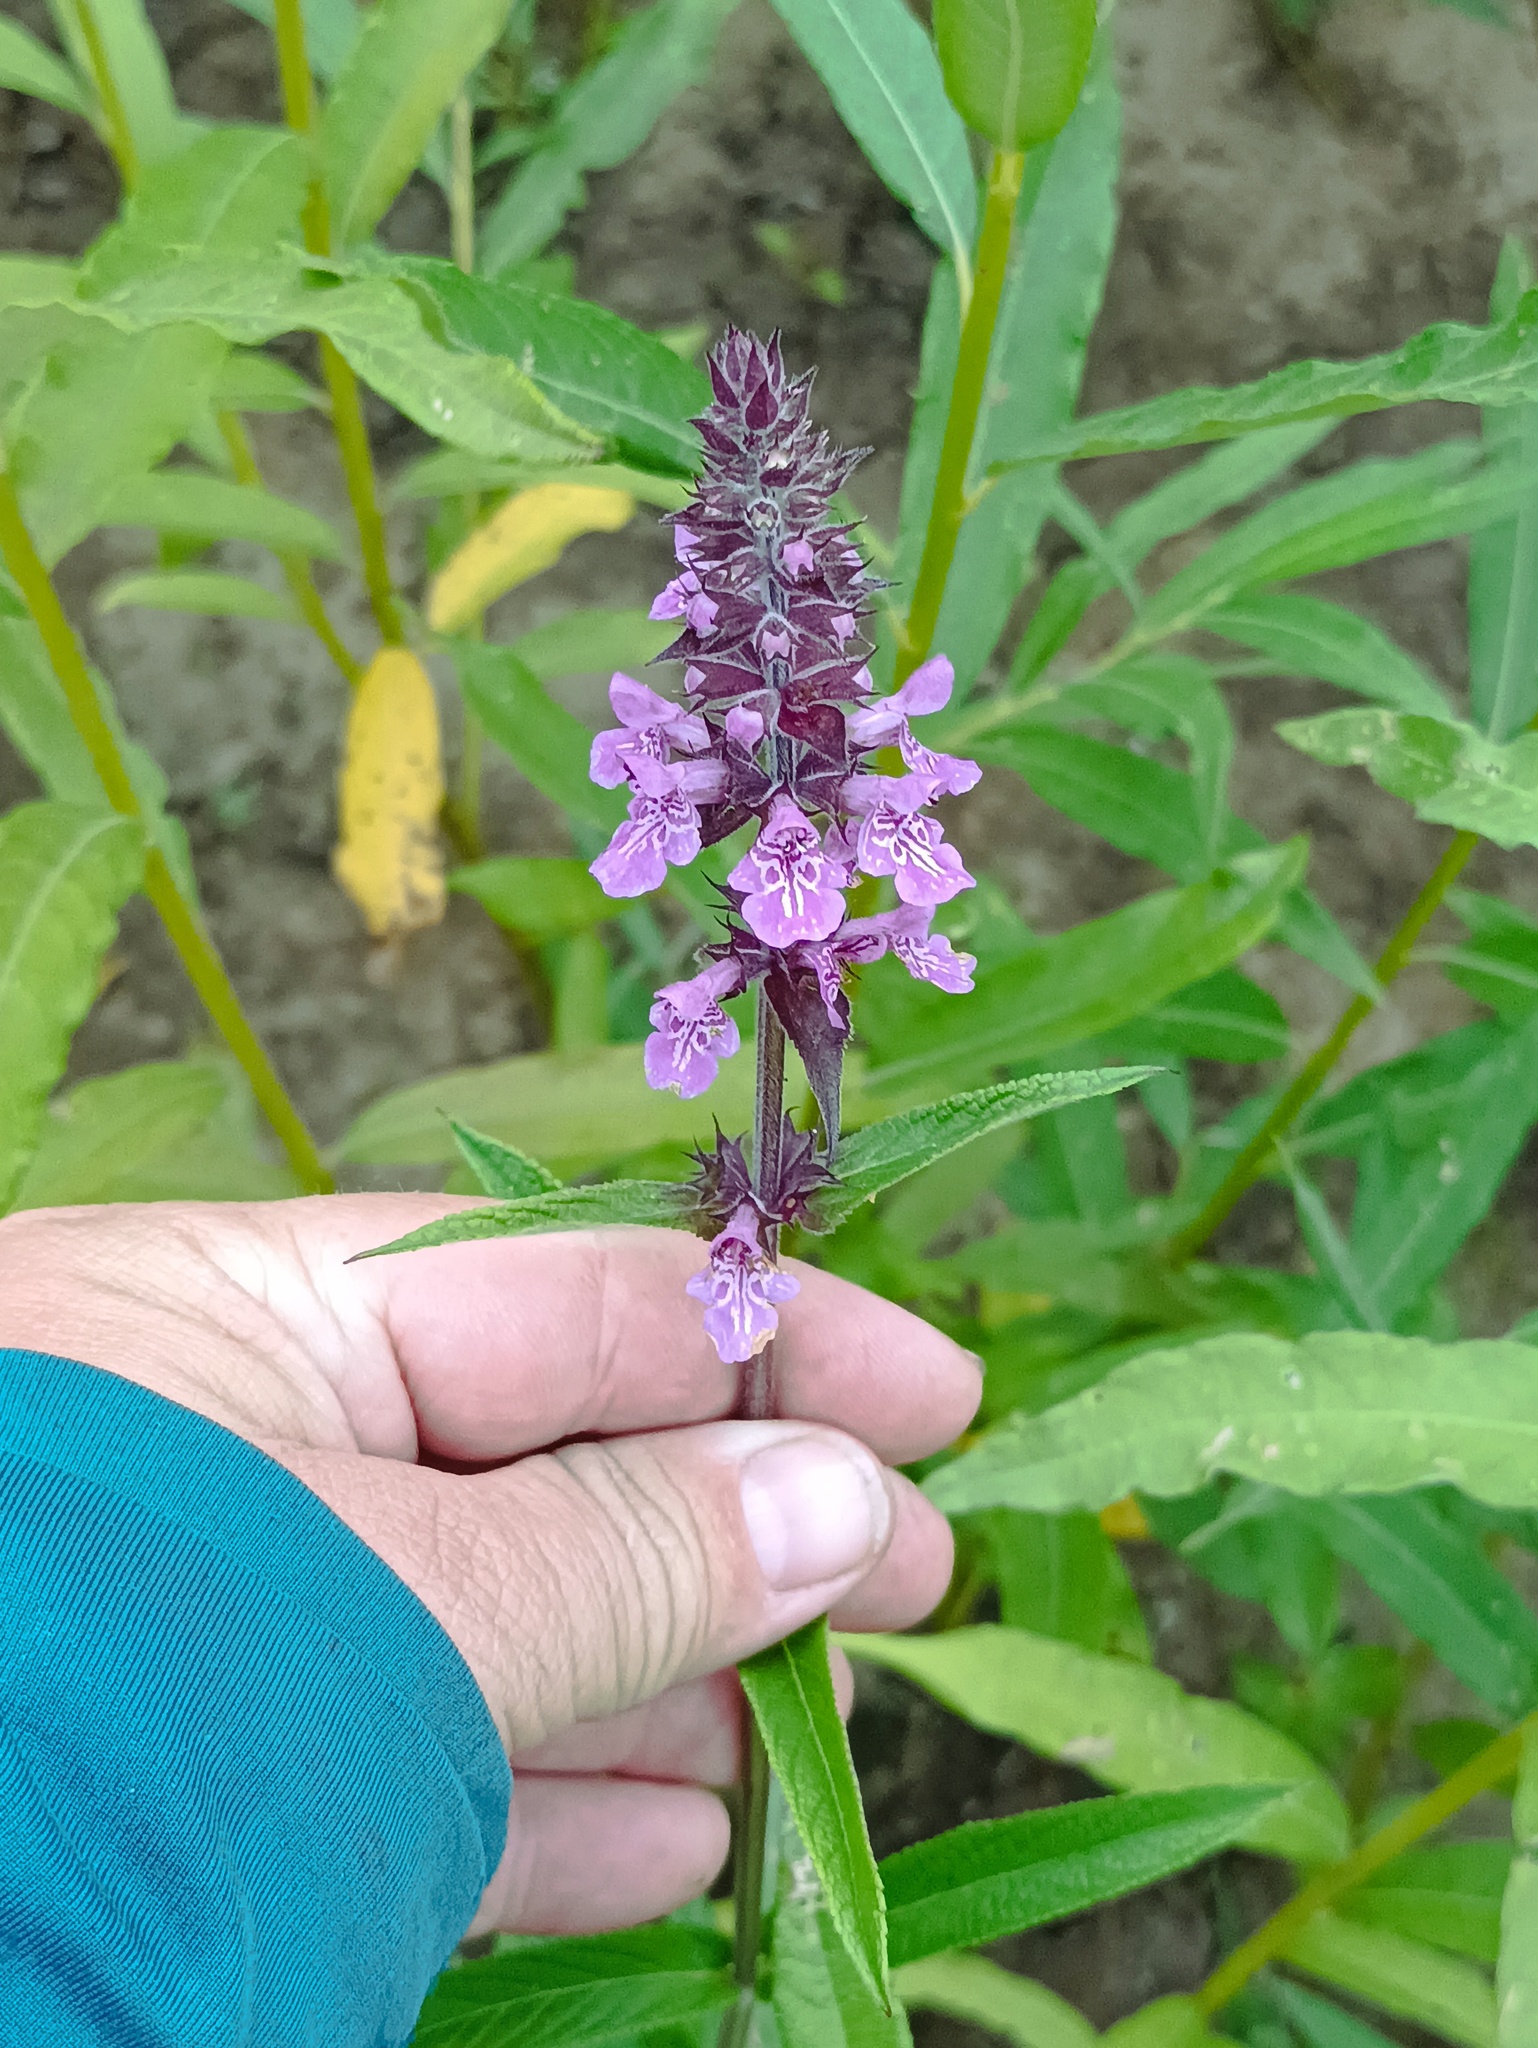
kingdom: Plantae
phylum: Tracheophyta
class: Magnoliopsida
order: Lamiales
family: Lamiaceae
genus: Stachys
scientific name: Stachys palustris
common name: Marsh woundwort
